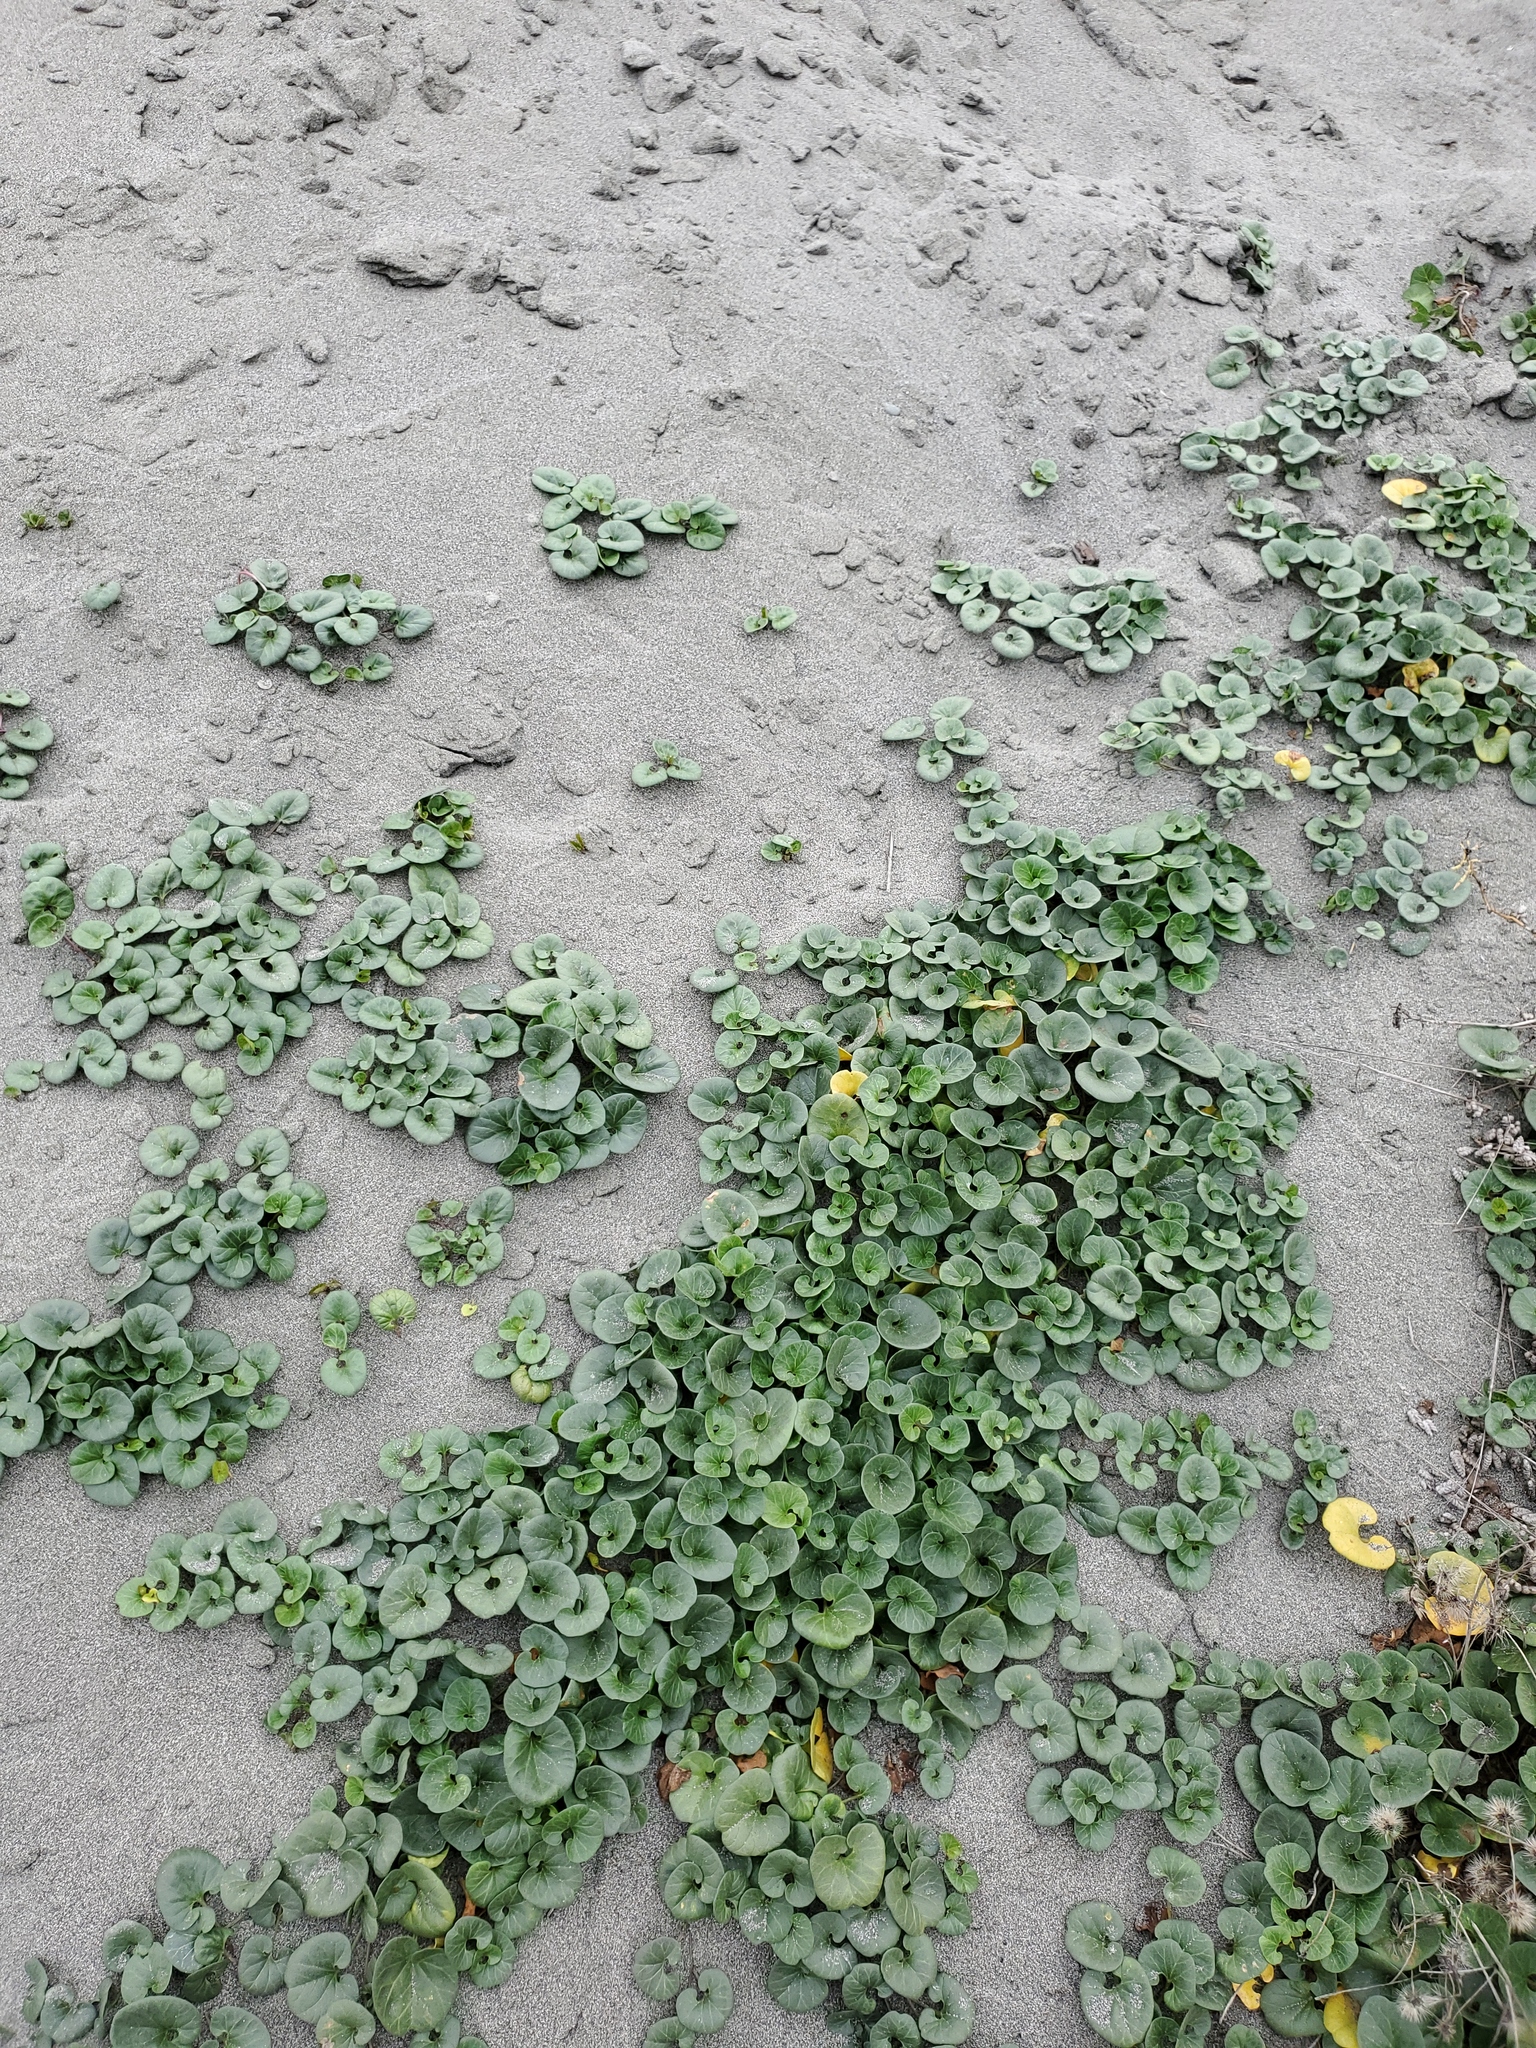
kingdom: Plantae
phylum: Tracheophyta
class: Magnoliopsida
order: Solanales
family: Convolvulaceae
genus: Calystegia
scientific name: Calystegia soldanella
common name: Sea bindweed
